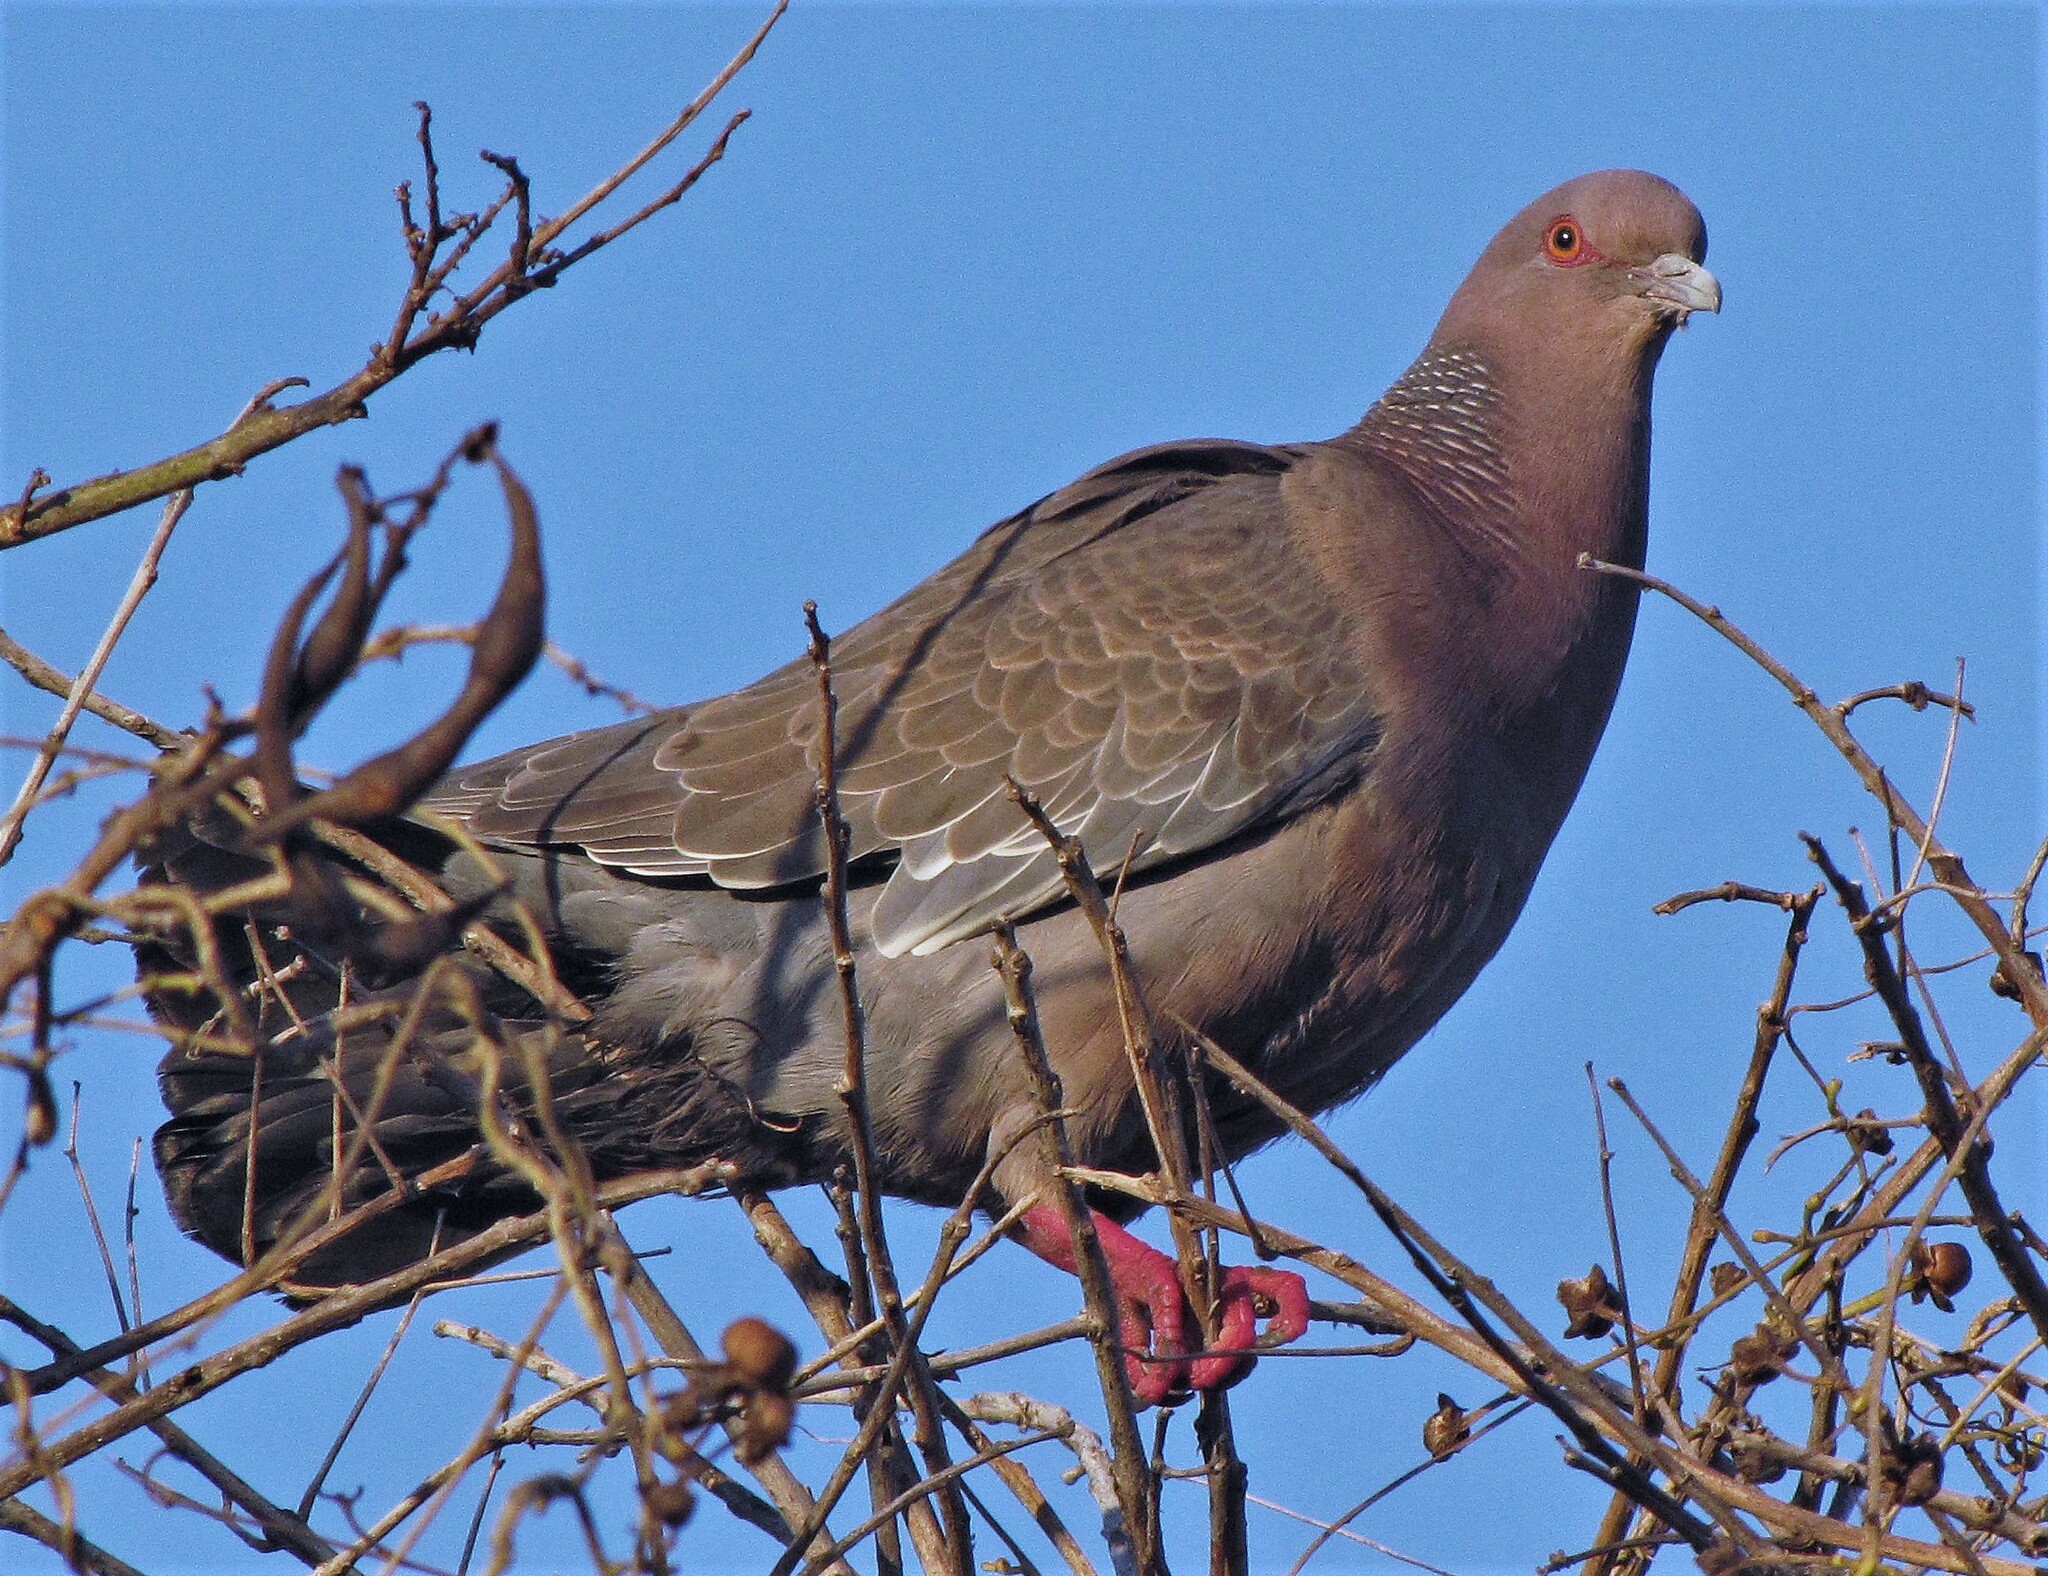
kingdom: Animalia
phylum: Chordata
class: Aves
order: Columbiformes
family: Columbidae
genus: Patagioenas
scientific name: Patagioenas picazuro
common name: Picazuro pigeon
